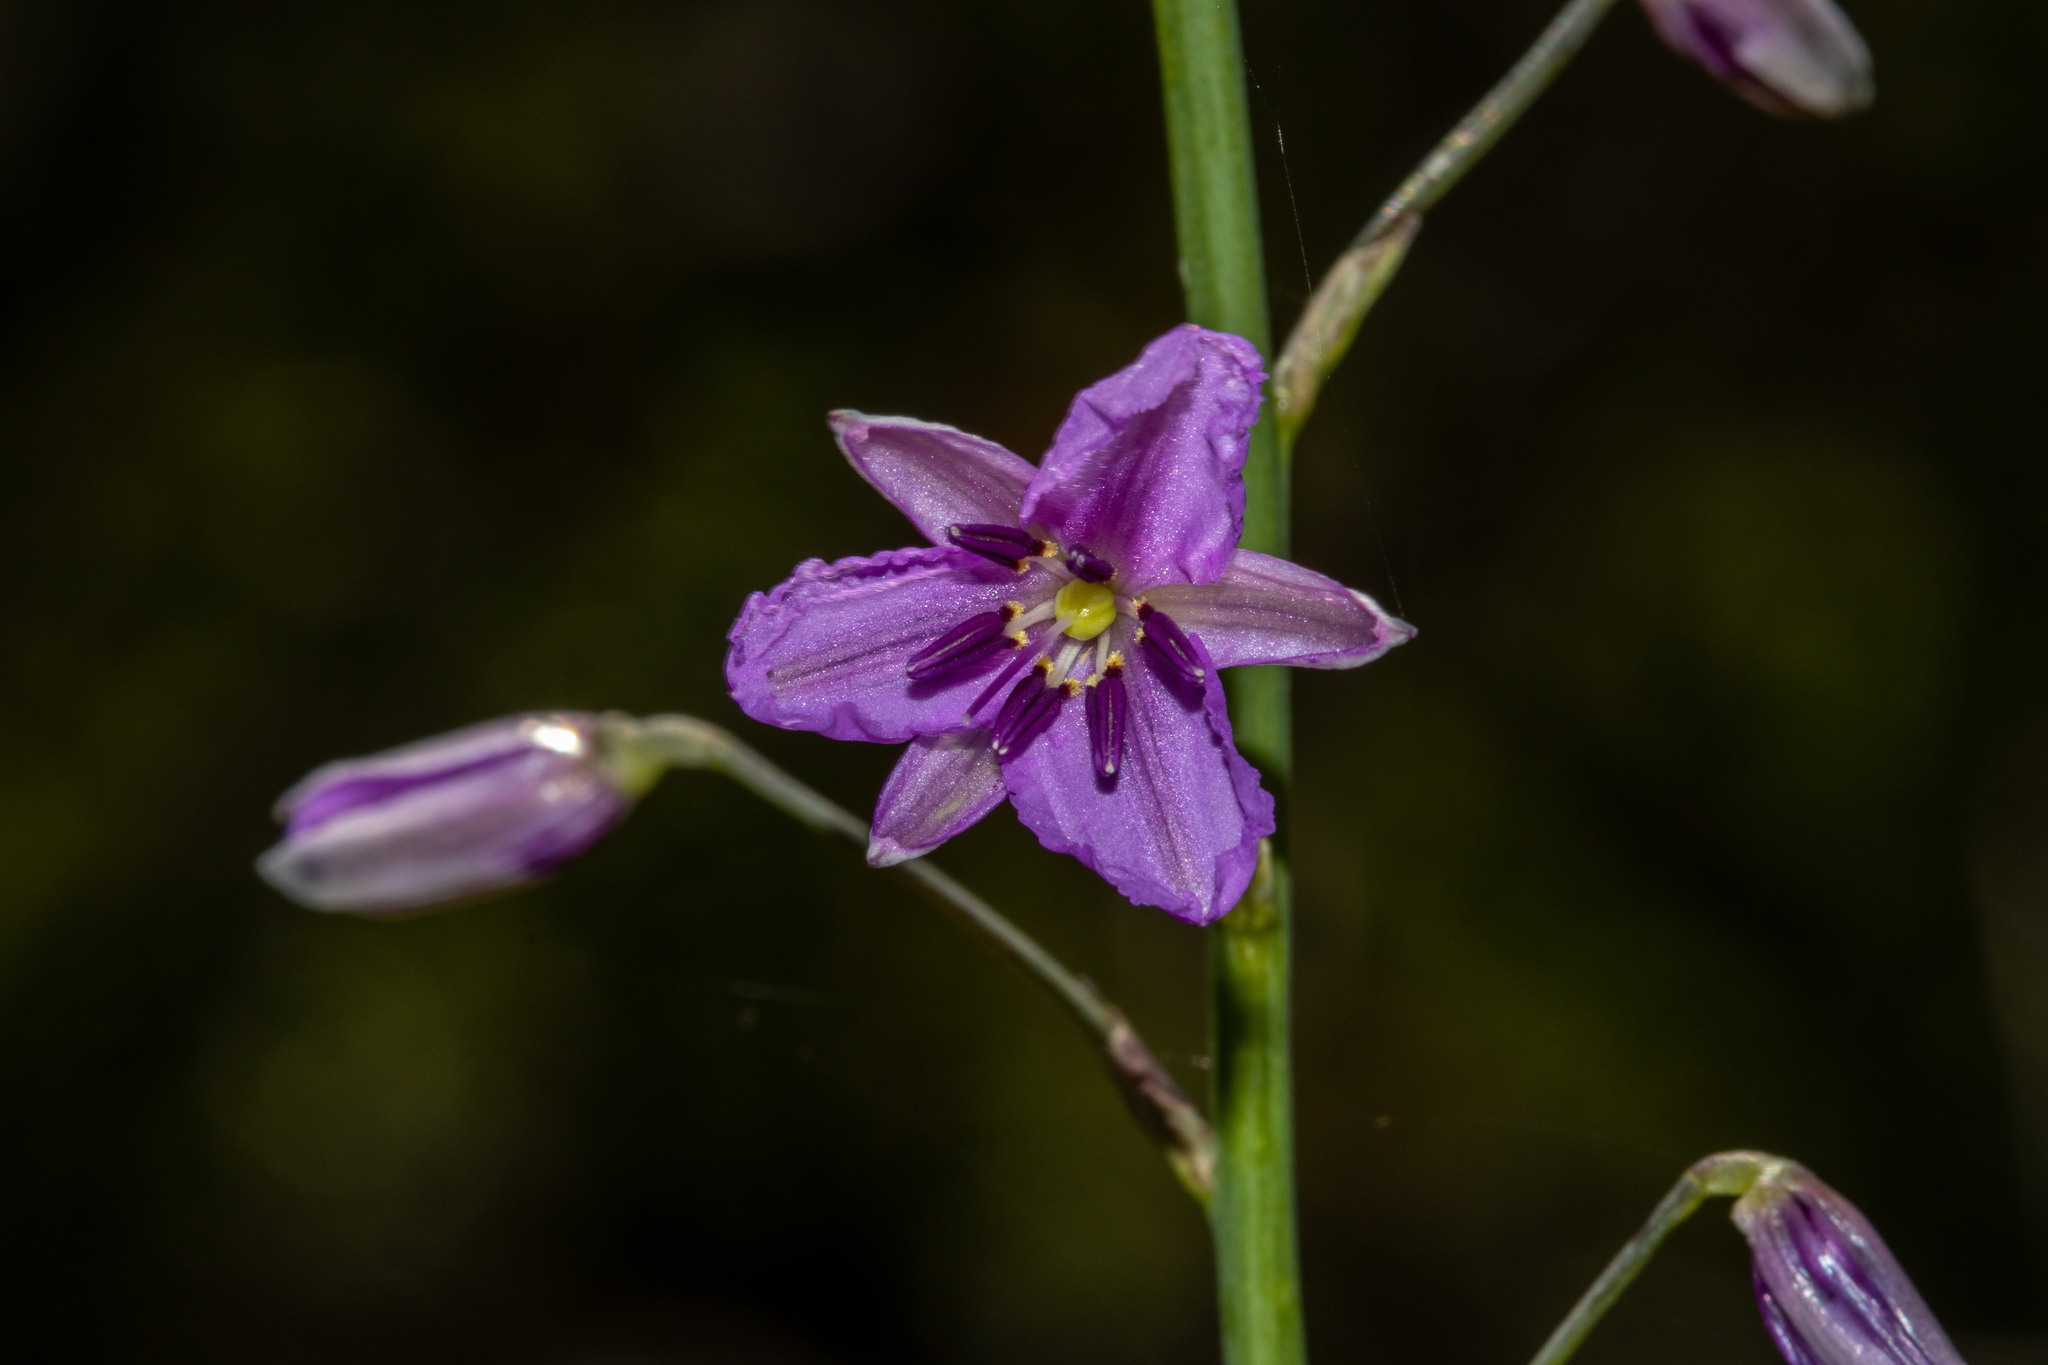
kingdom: Plantae
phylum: Tracheophyta
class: Liliopsida
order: Asparagales
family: Asparagaceae
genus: Arthropodium
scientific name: Arthropodium strictum
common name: Chocolate-lily
